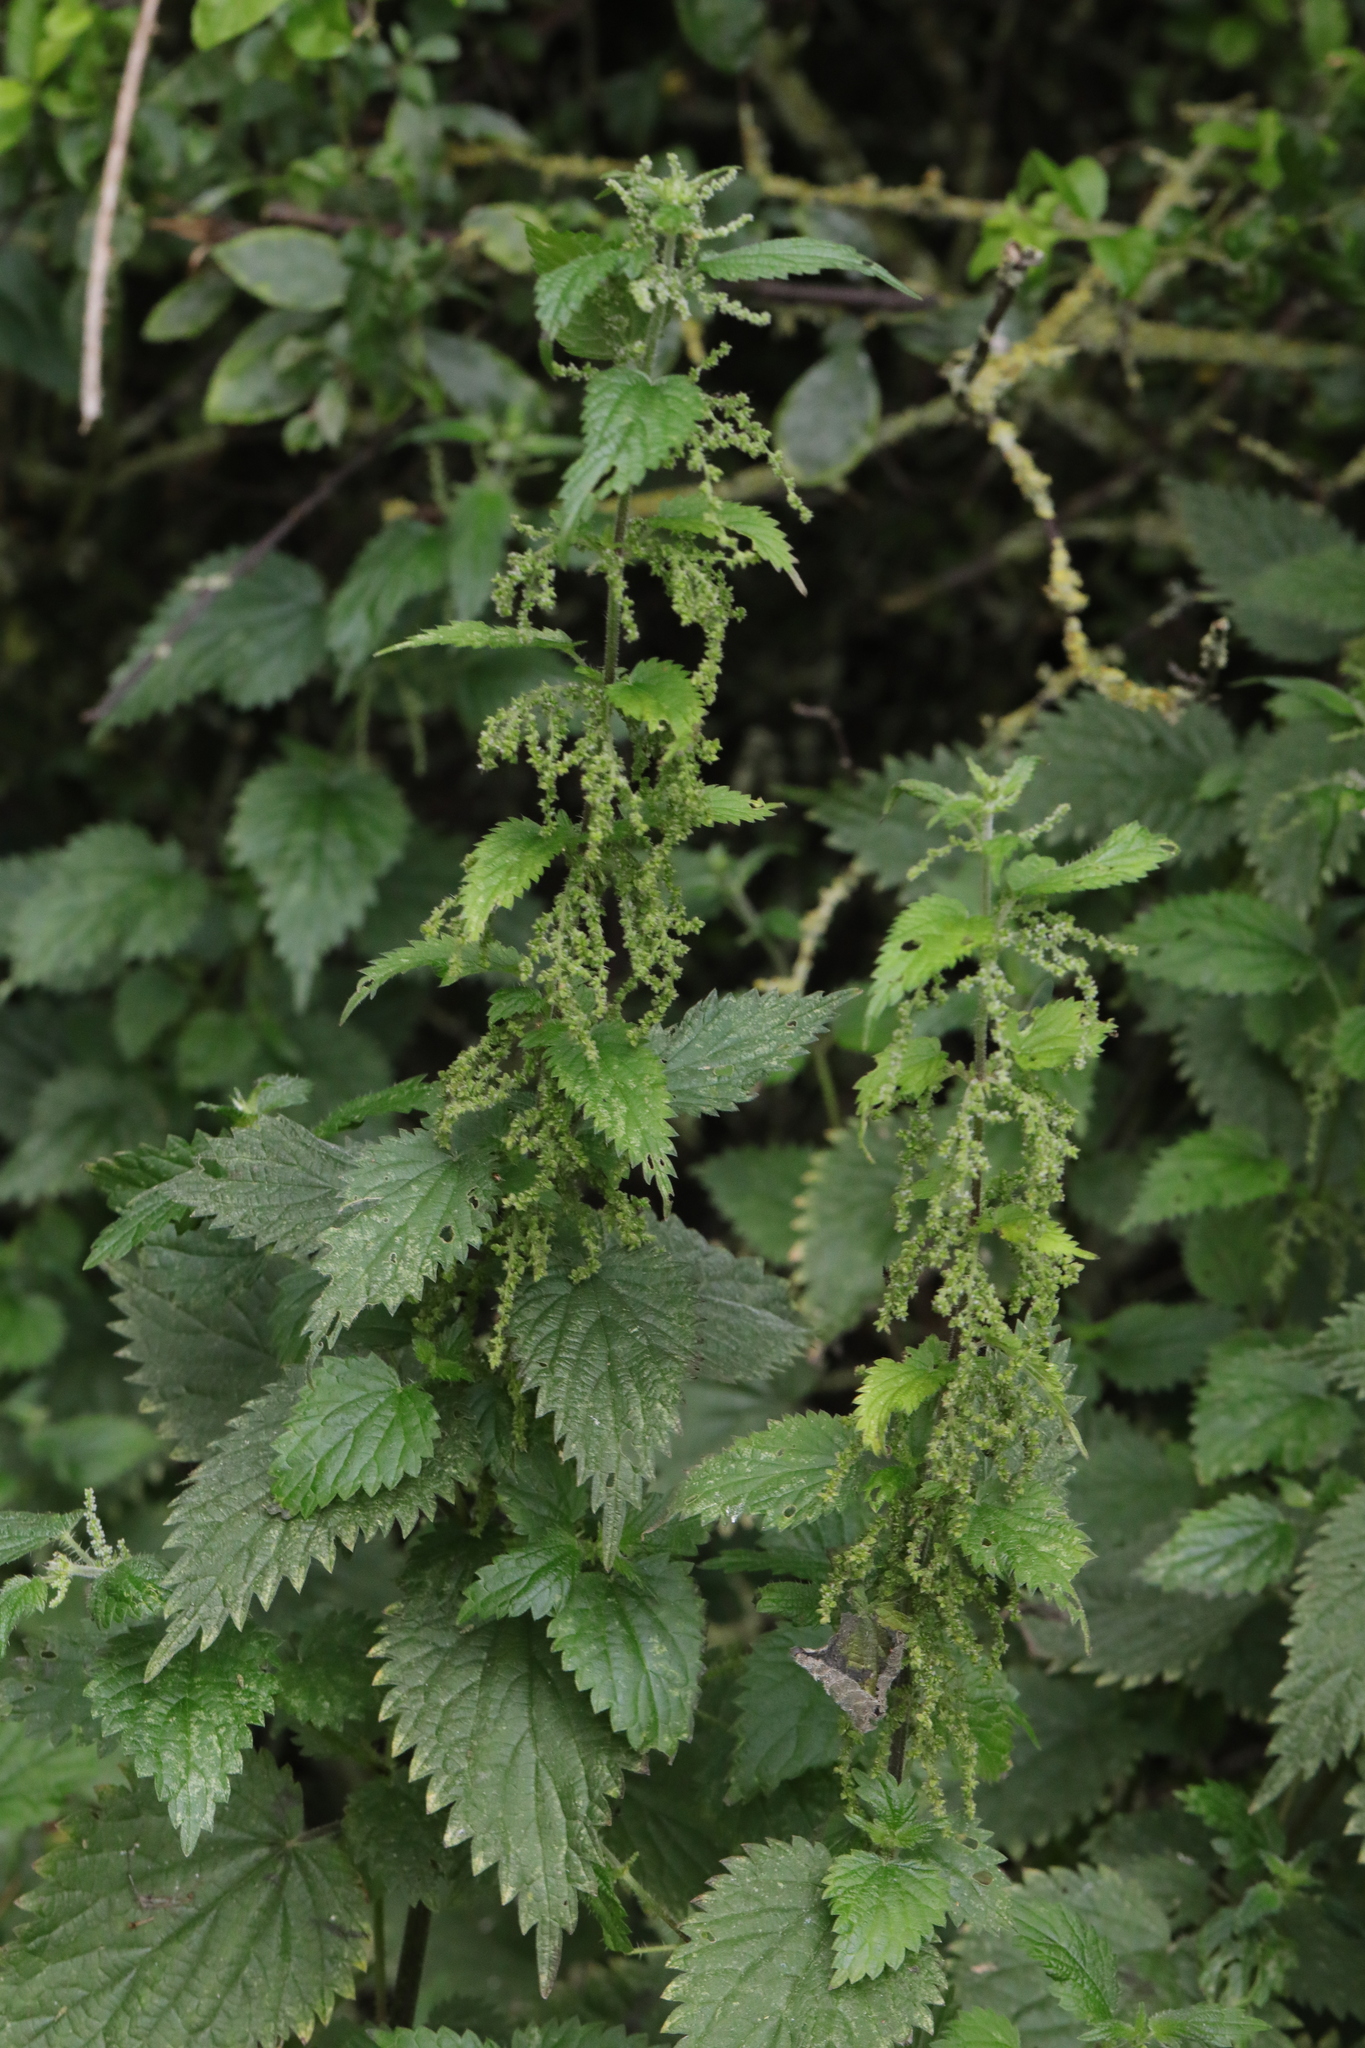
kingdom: Plantae
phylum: Tracheophyta
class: Magnoliopsida
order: Rosales
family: Urticaceae
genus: Urtica
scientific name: Urtica dioica
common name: Common nettle
